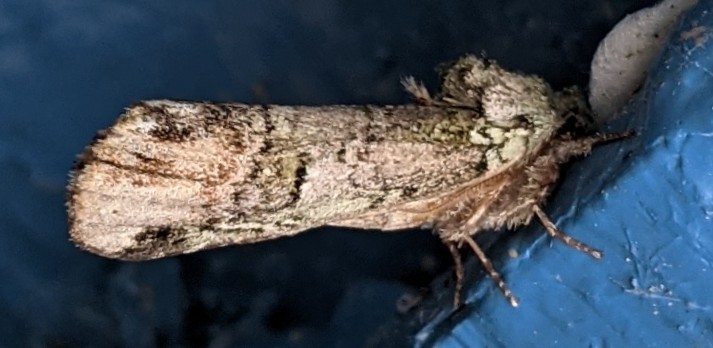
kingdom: Animalia
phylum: Arthropoda
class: Insecta
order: Lepidoptera
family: Notodontidae
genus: Schizura
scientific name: Schizura
